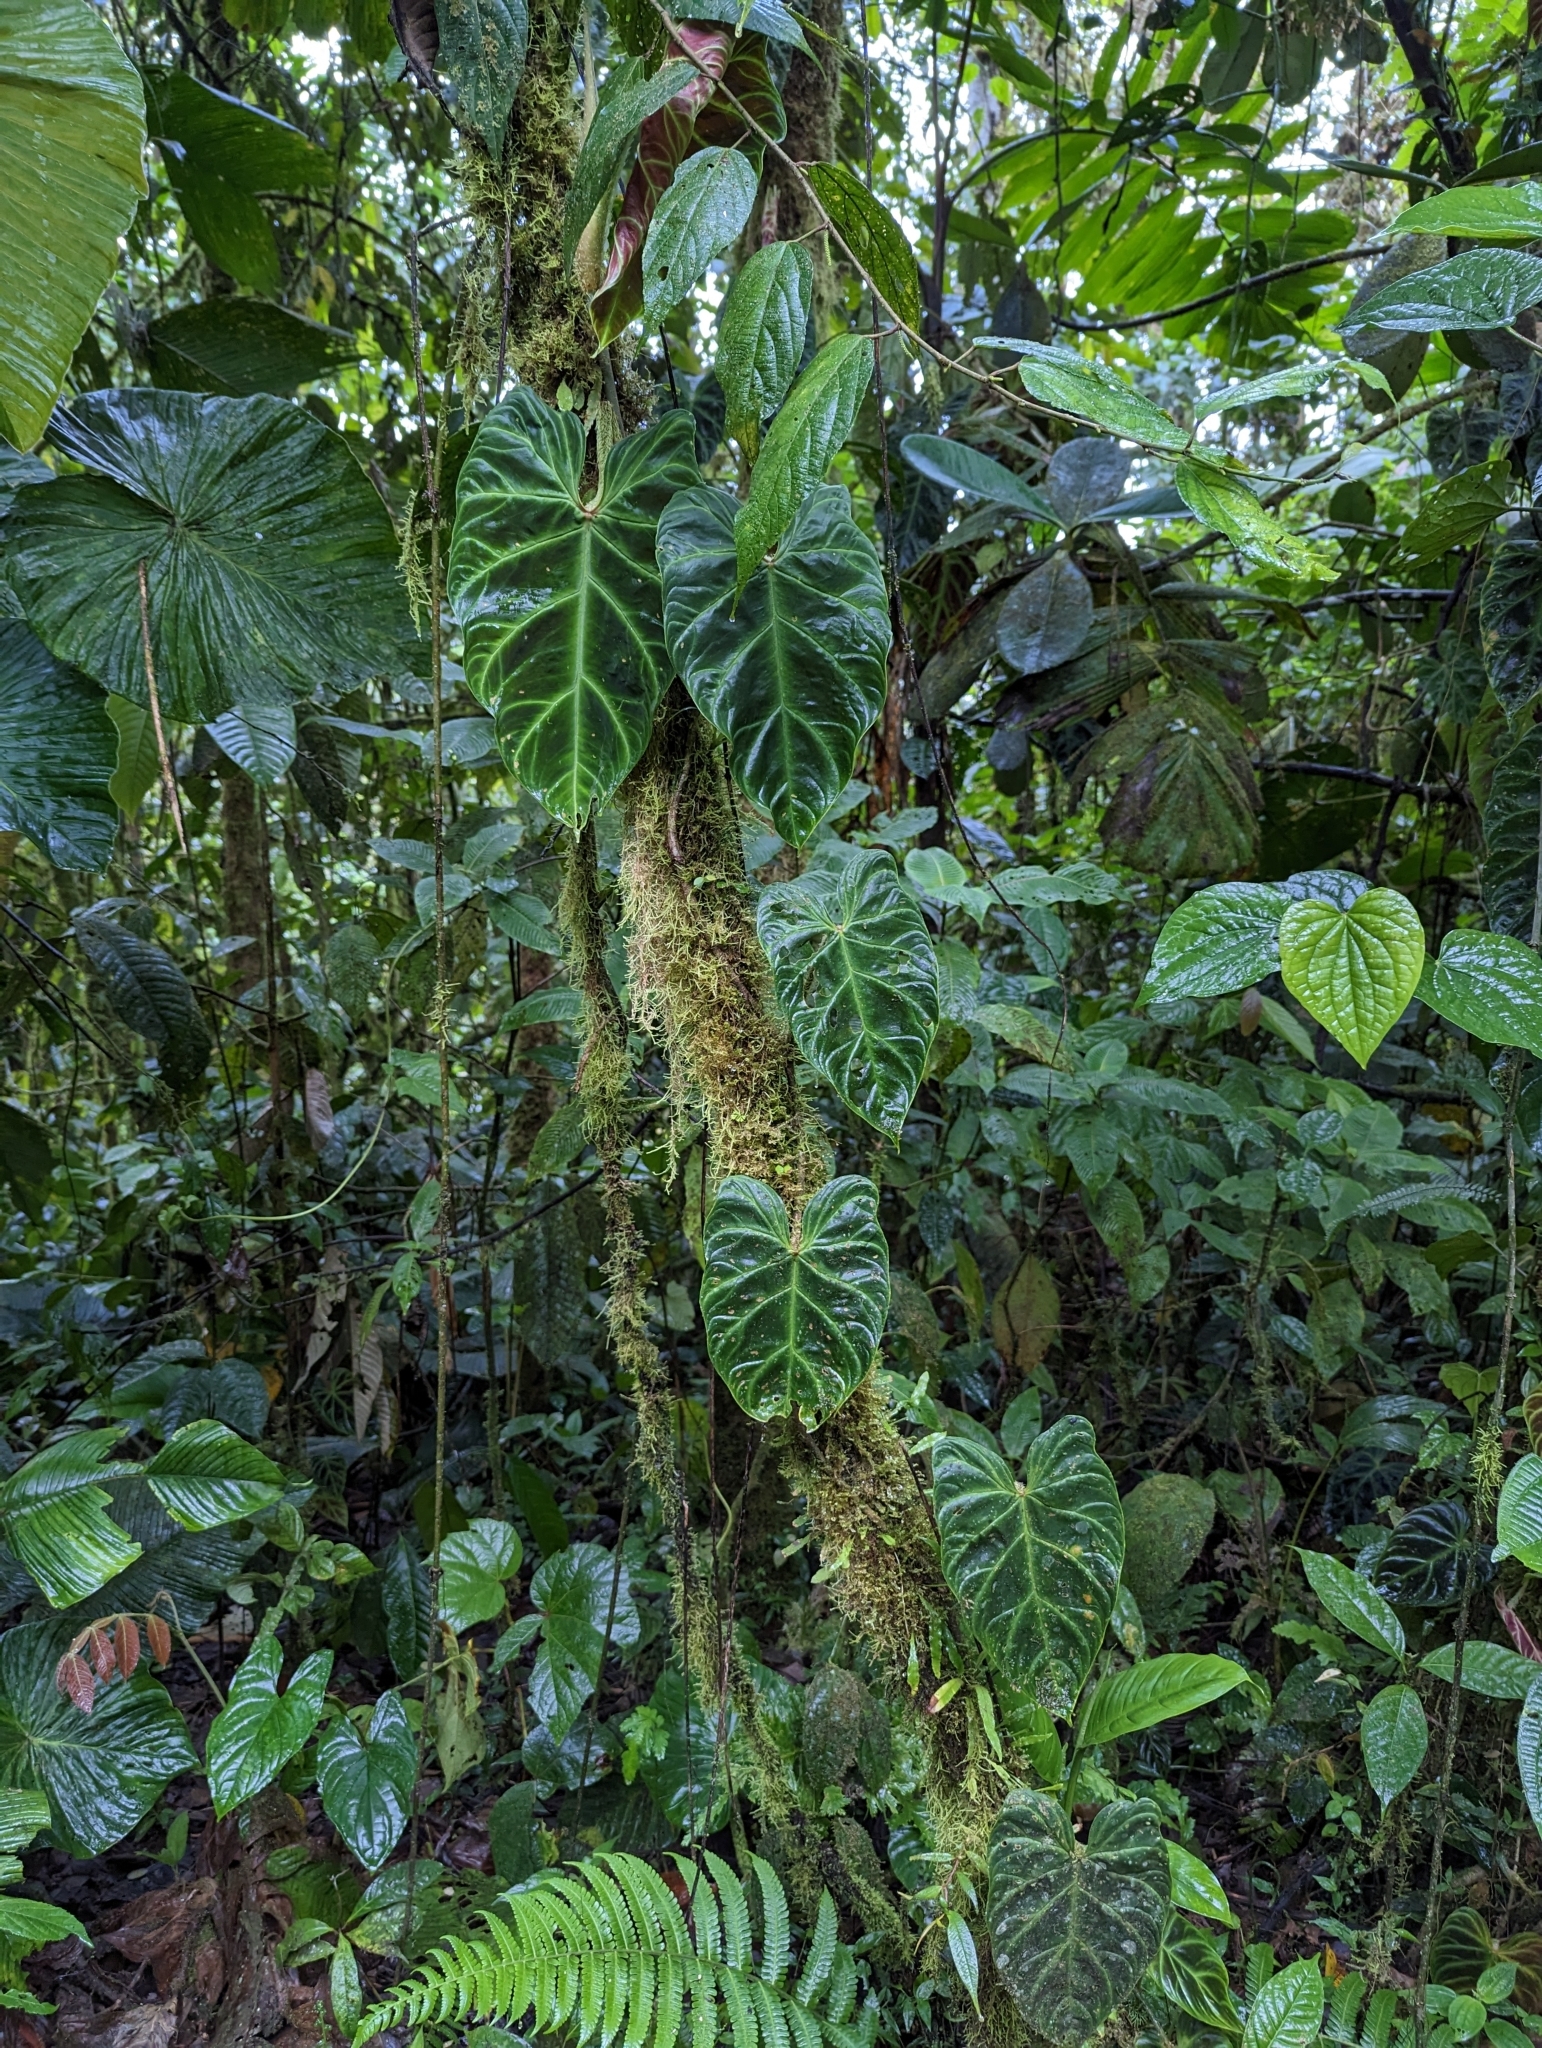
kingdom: Plantae
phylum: Tracheophyta
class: Liliopsida
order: Alismatales
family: Araceae
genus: Philodendron
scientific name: Philodendron verrucosum
